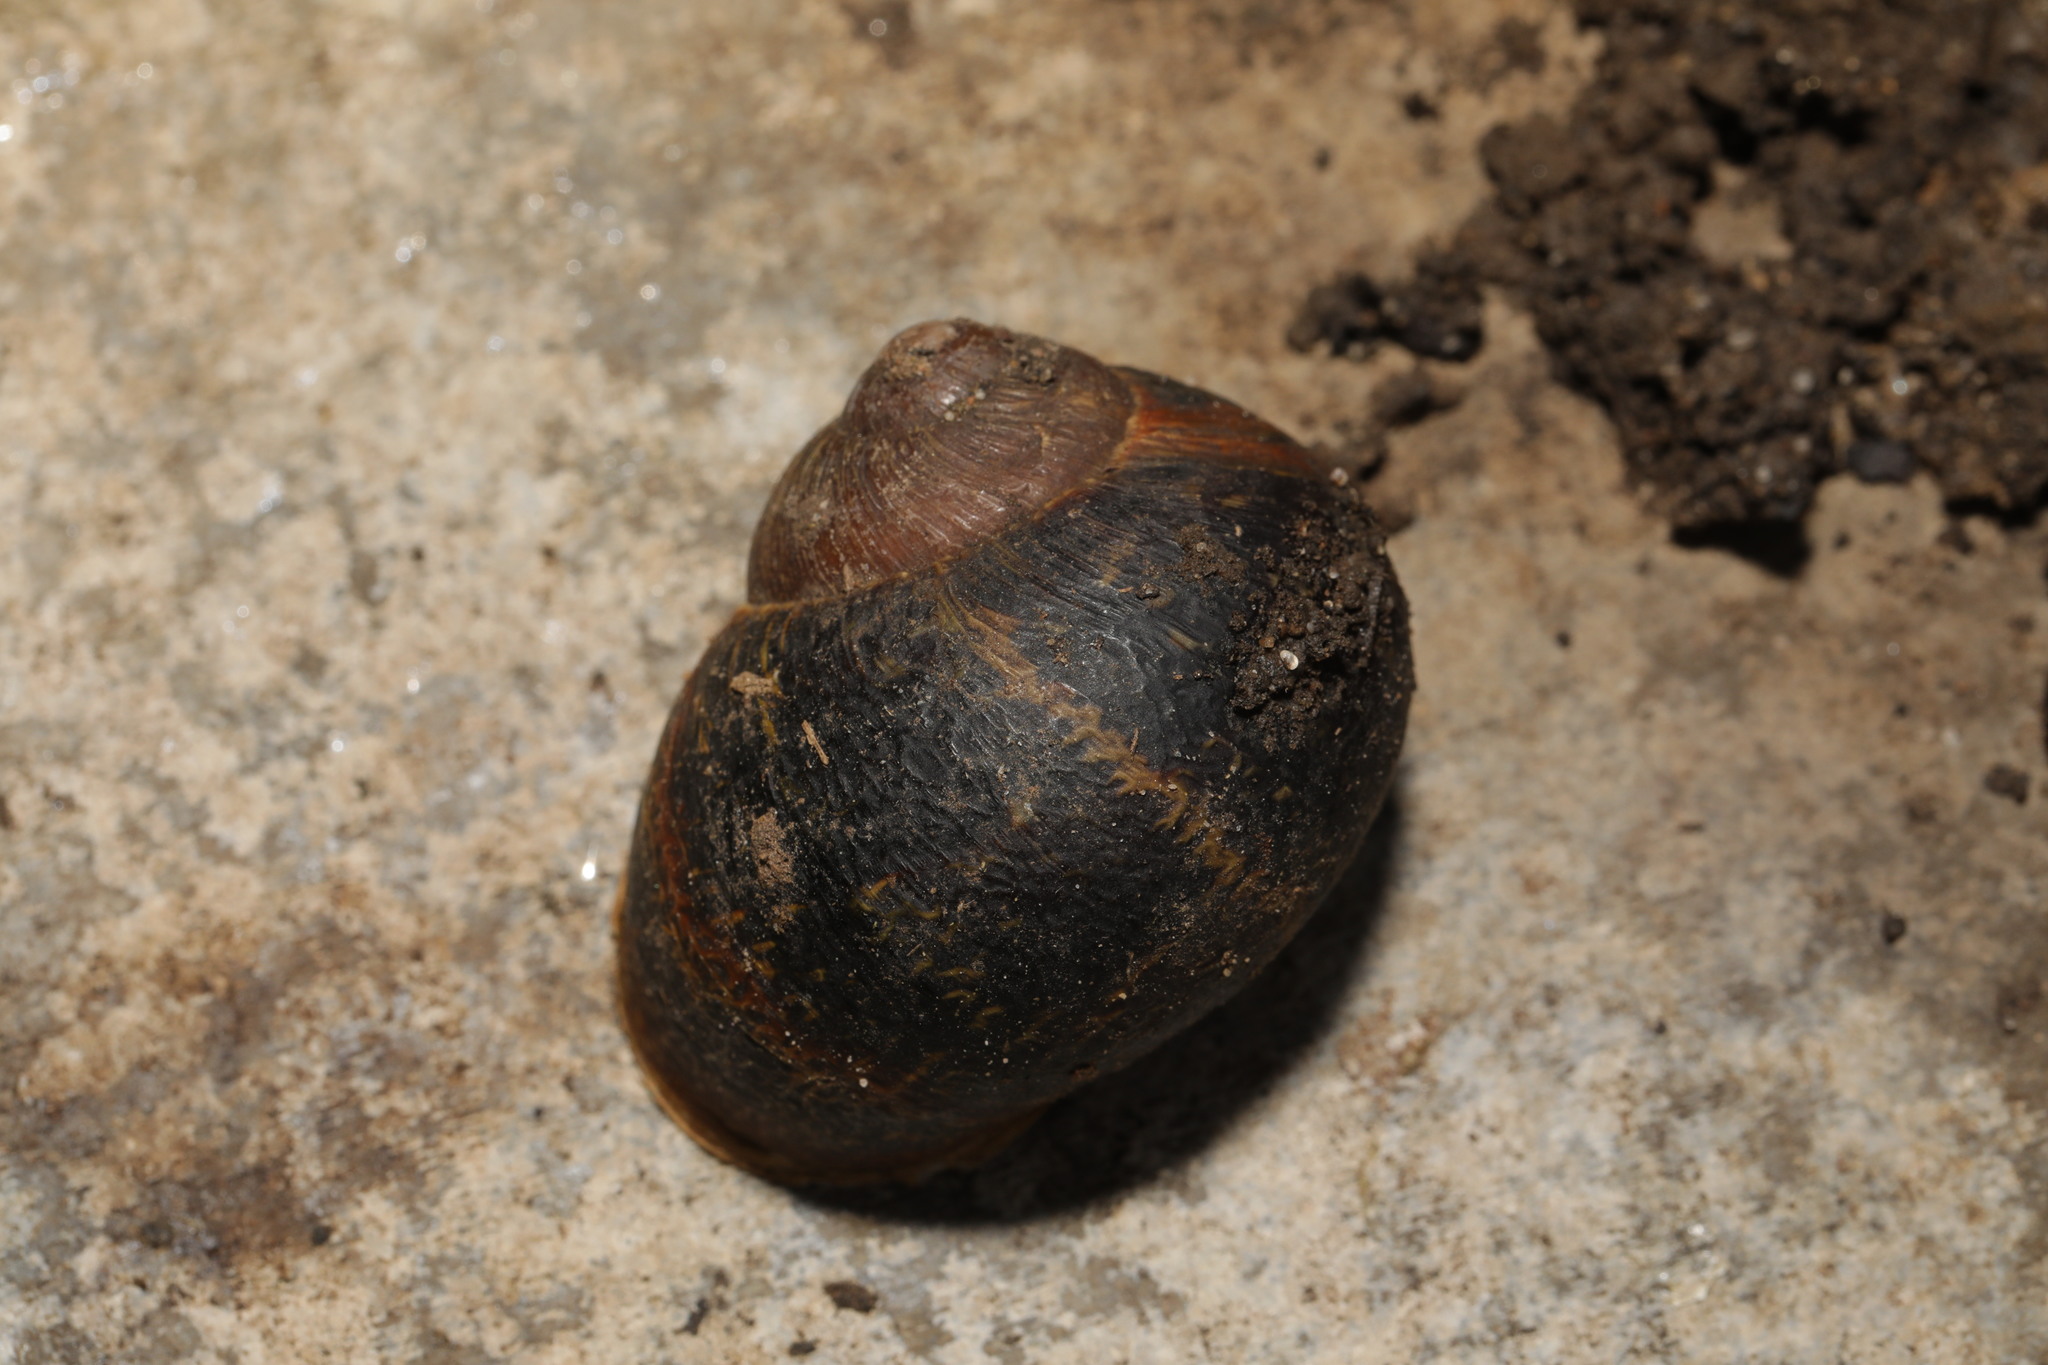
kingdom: Animalia
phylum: Mollusca
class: Gastropoda
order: Stylommatophora
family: Helicidae
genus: Cornu
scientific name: Cornu aspersum
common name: Brown garden snail
